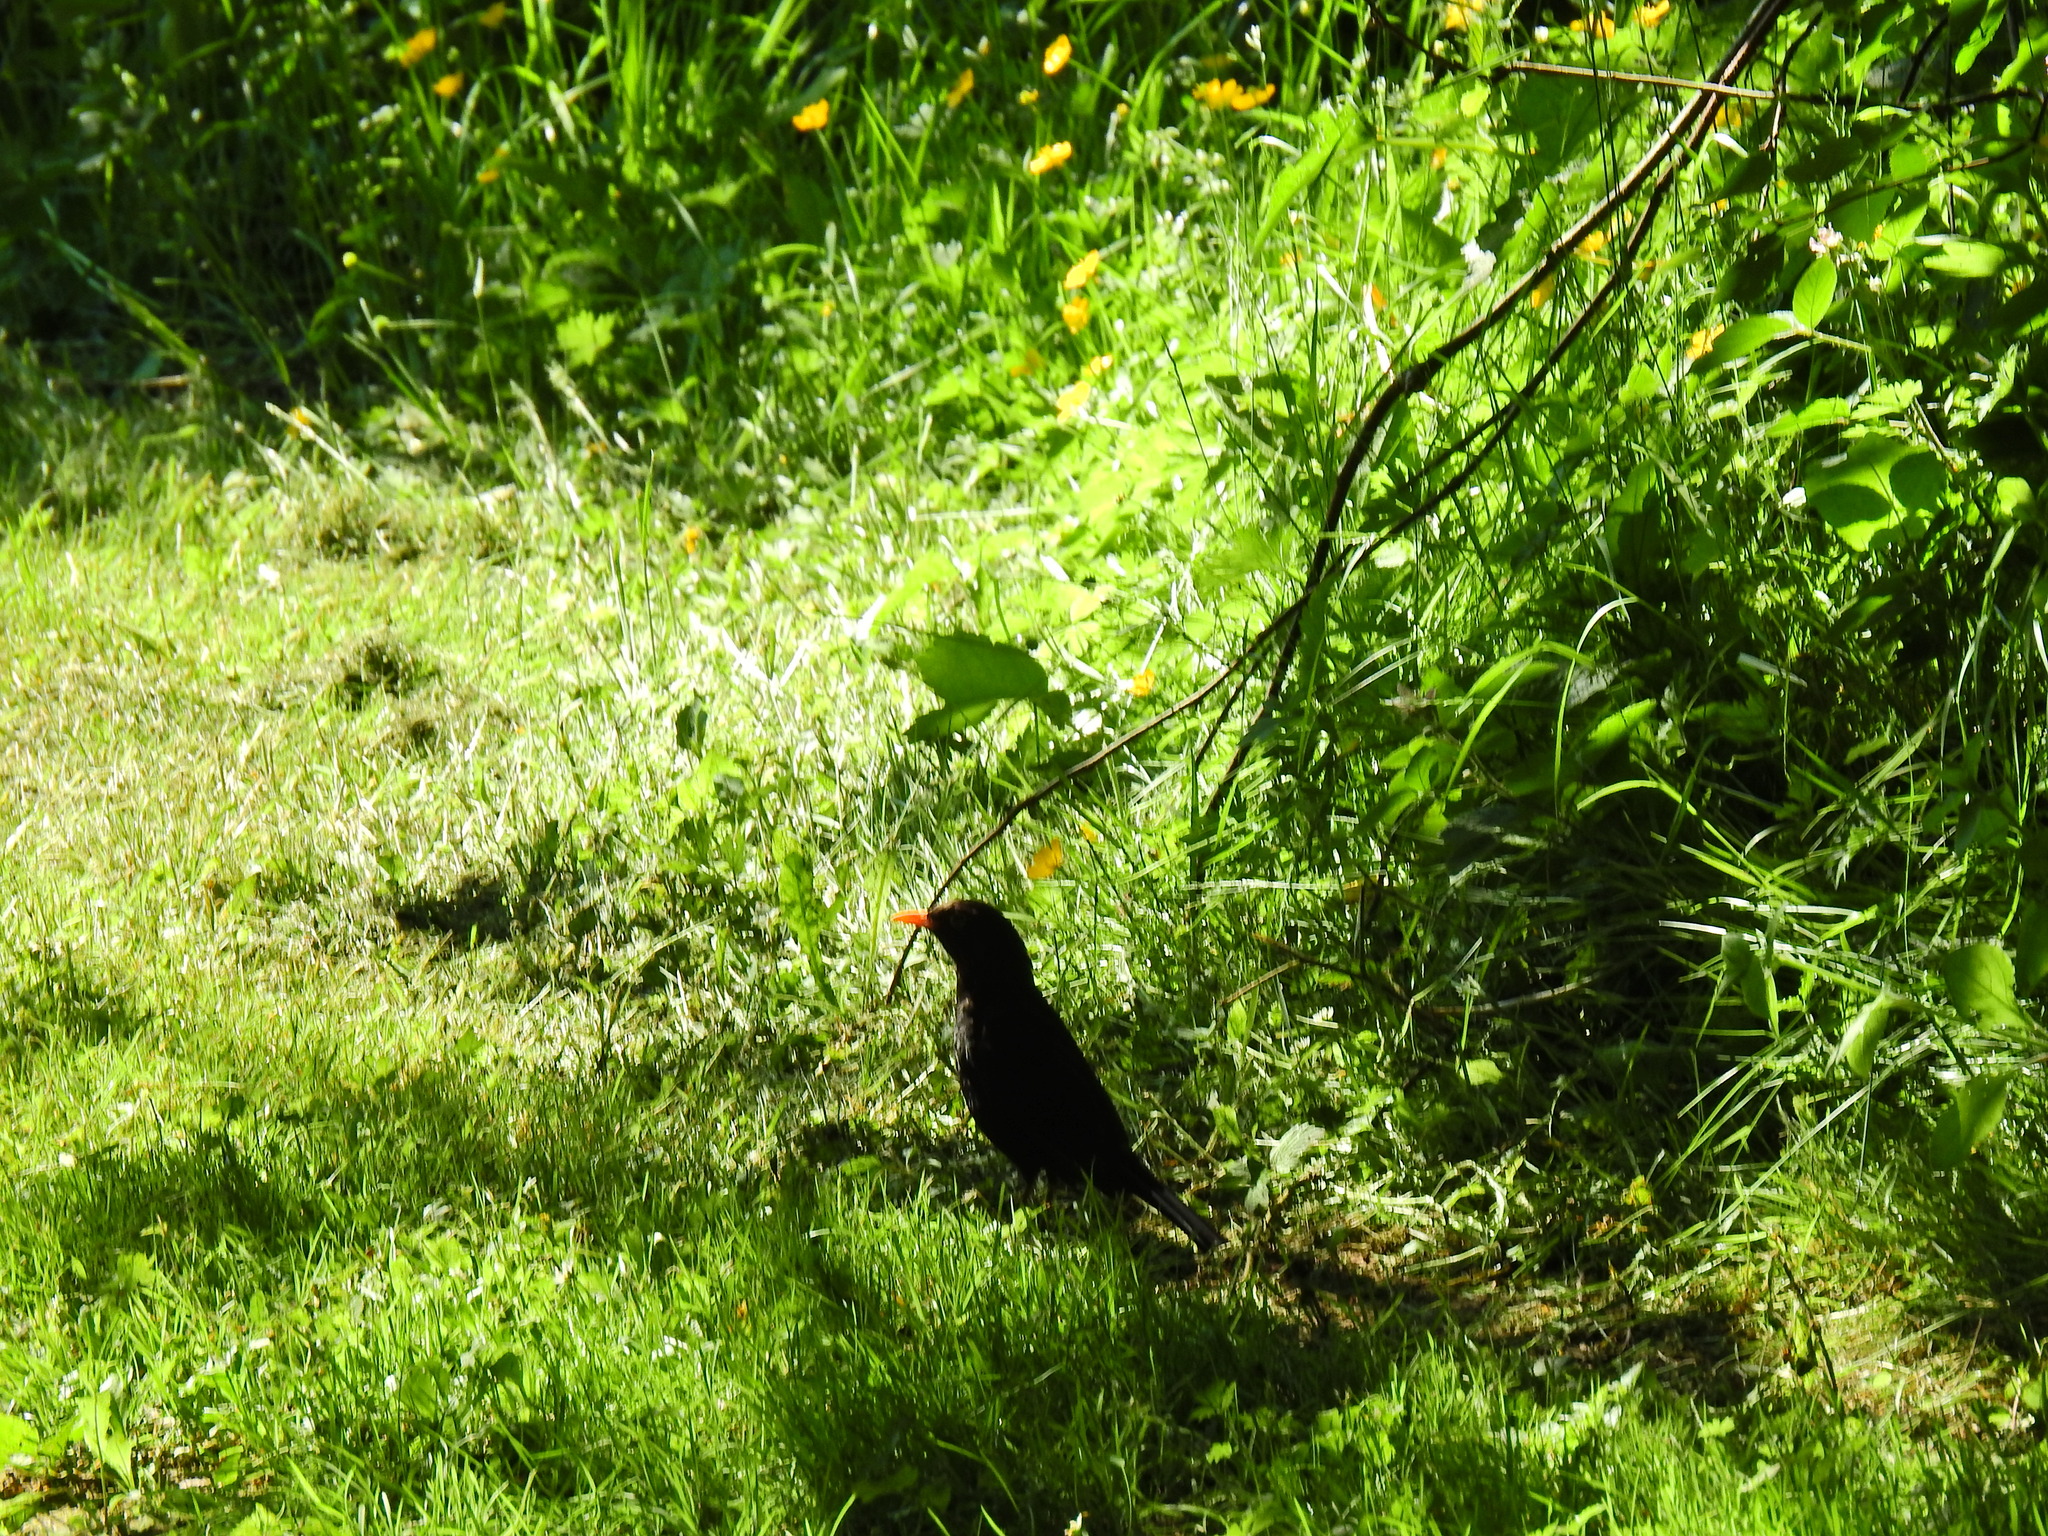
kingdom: Animalia
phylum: Chordata
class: Aves
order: Passeriformes
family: Turdidae
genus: Turdus
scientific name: Turdus merula
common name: Common blackbird
